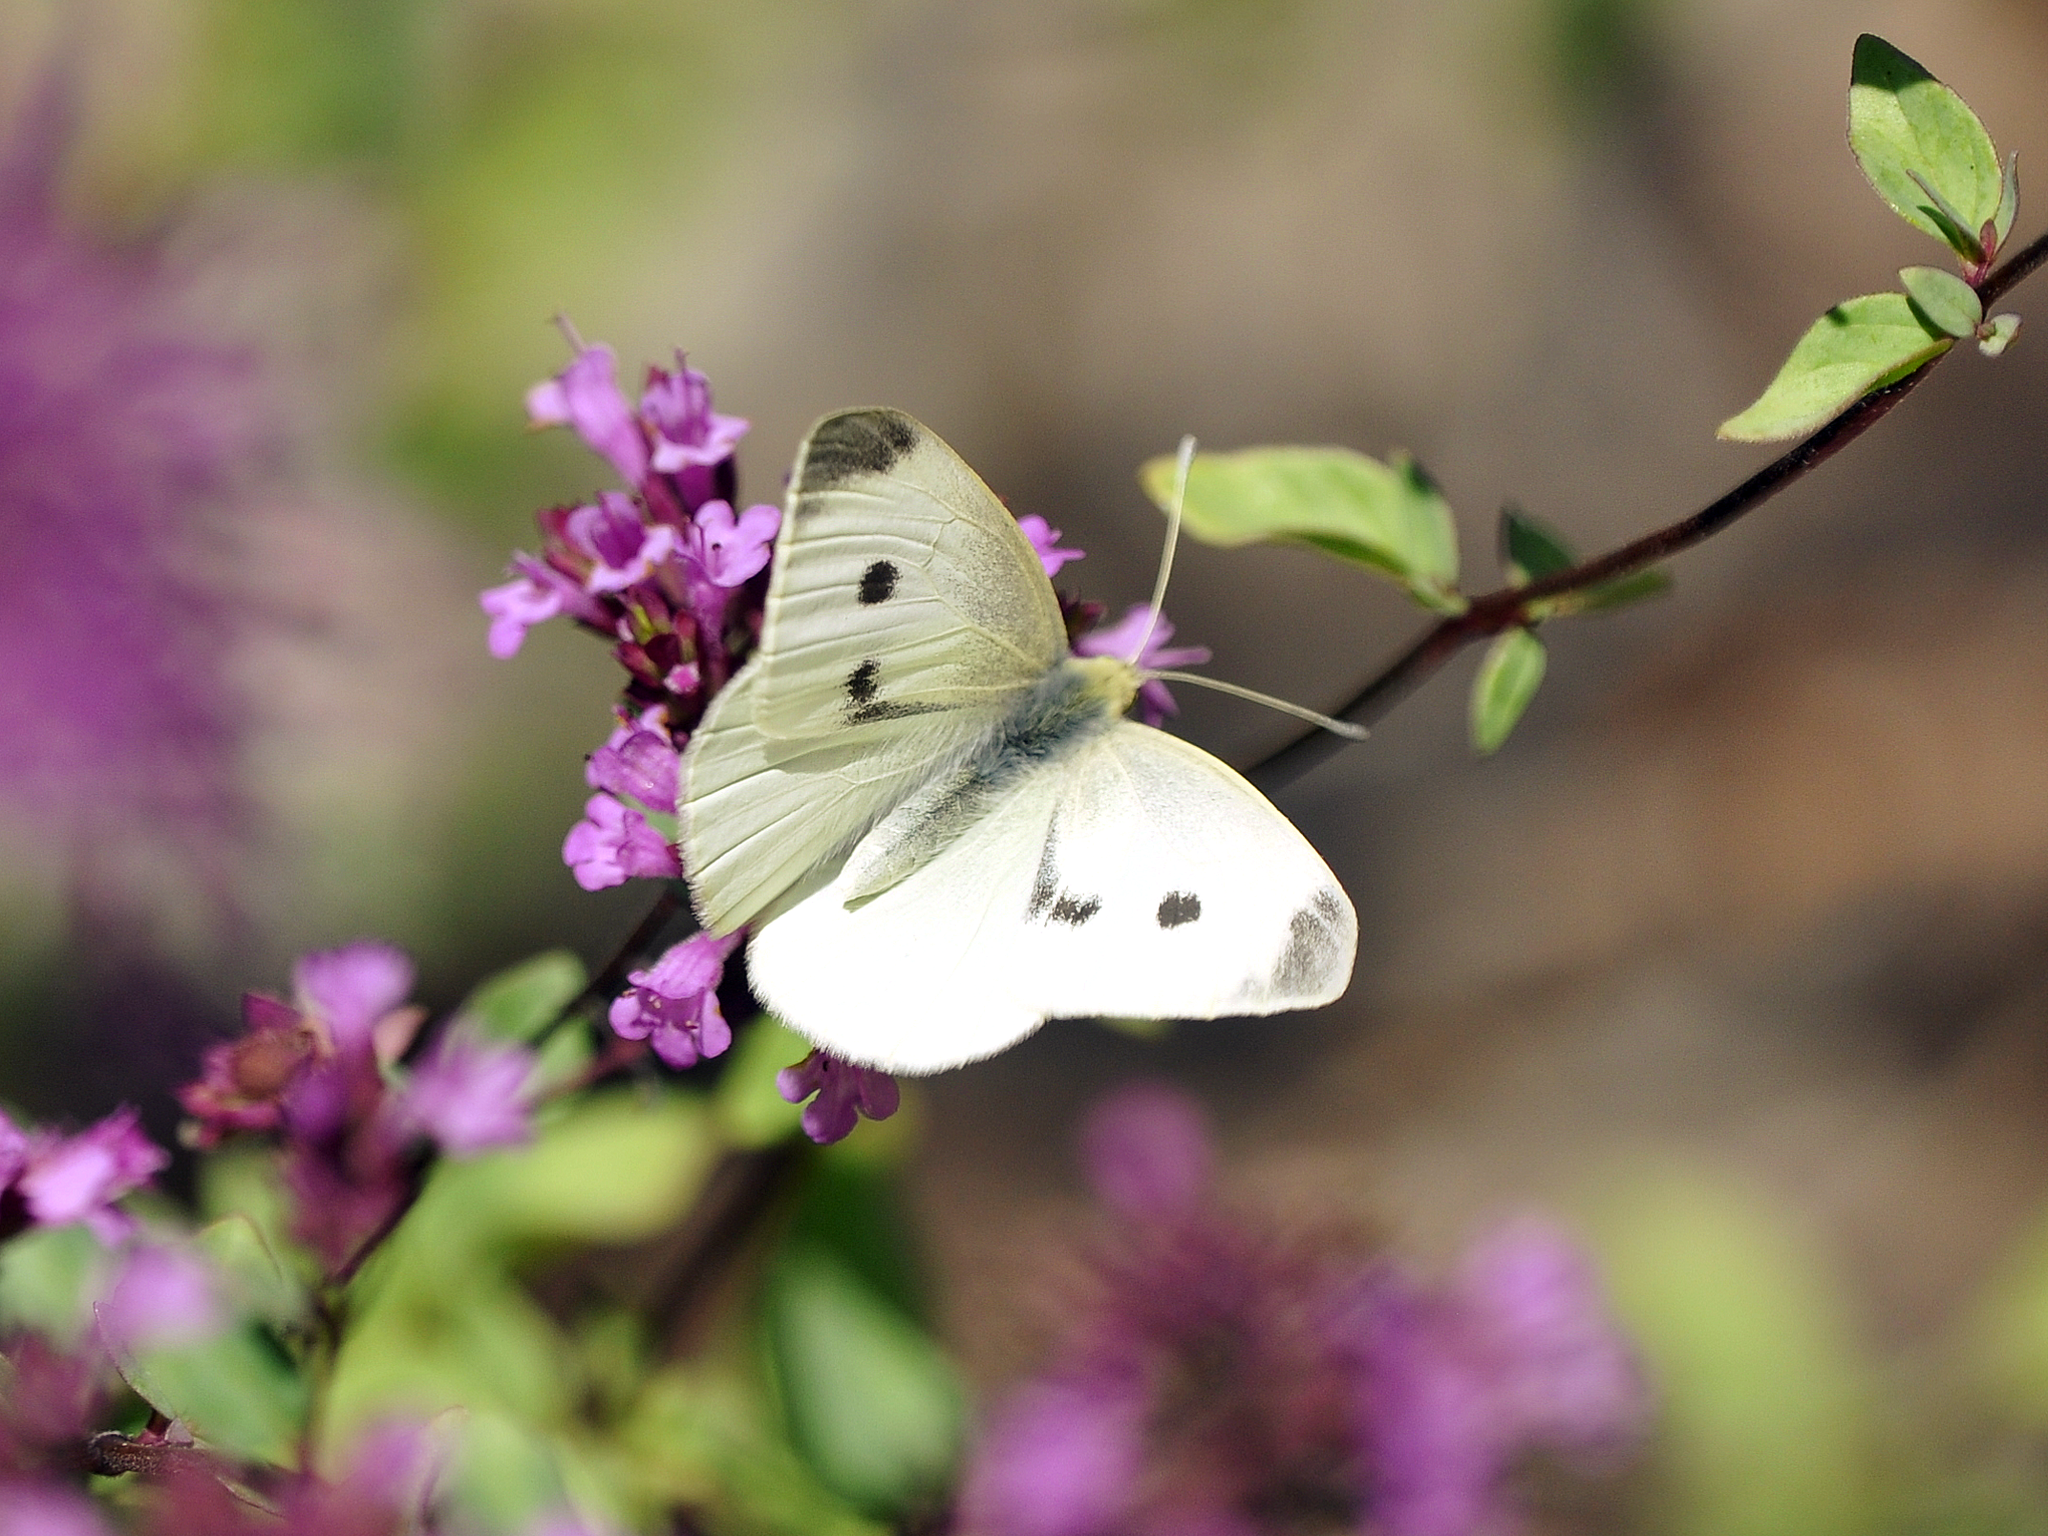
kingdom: Animalia
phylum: Arthropoda
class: Insecta
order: Lepidoptera
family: Pieridae
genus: Pieris
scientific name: Pieris rapae
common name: Small white
